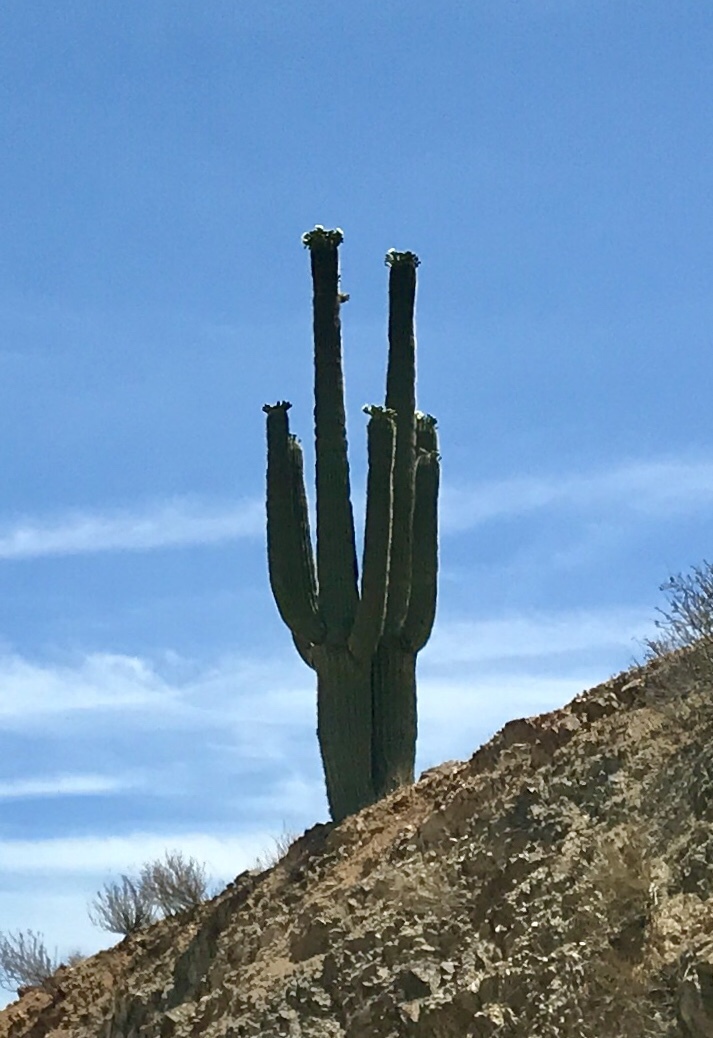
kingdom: Plantae
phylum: Tracheophyta
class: Magnoliopsida
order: Caryophyllales
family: Cactaceae
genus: Carnegiea
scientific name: Carnegiea gigantea
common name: Saguaro
